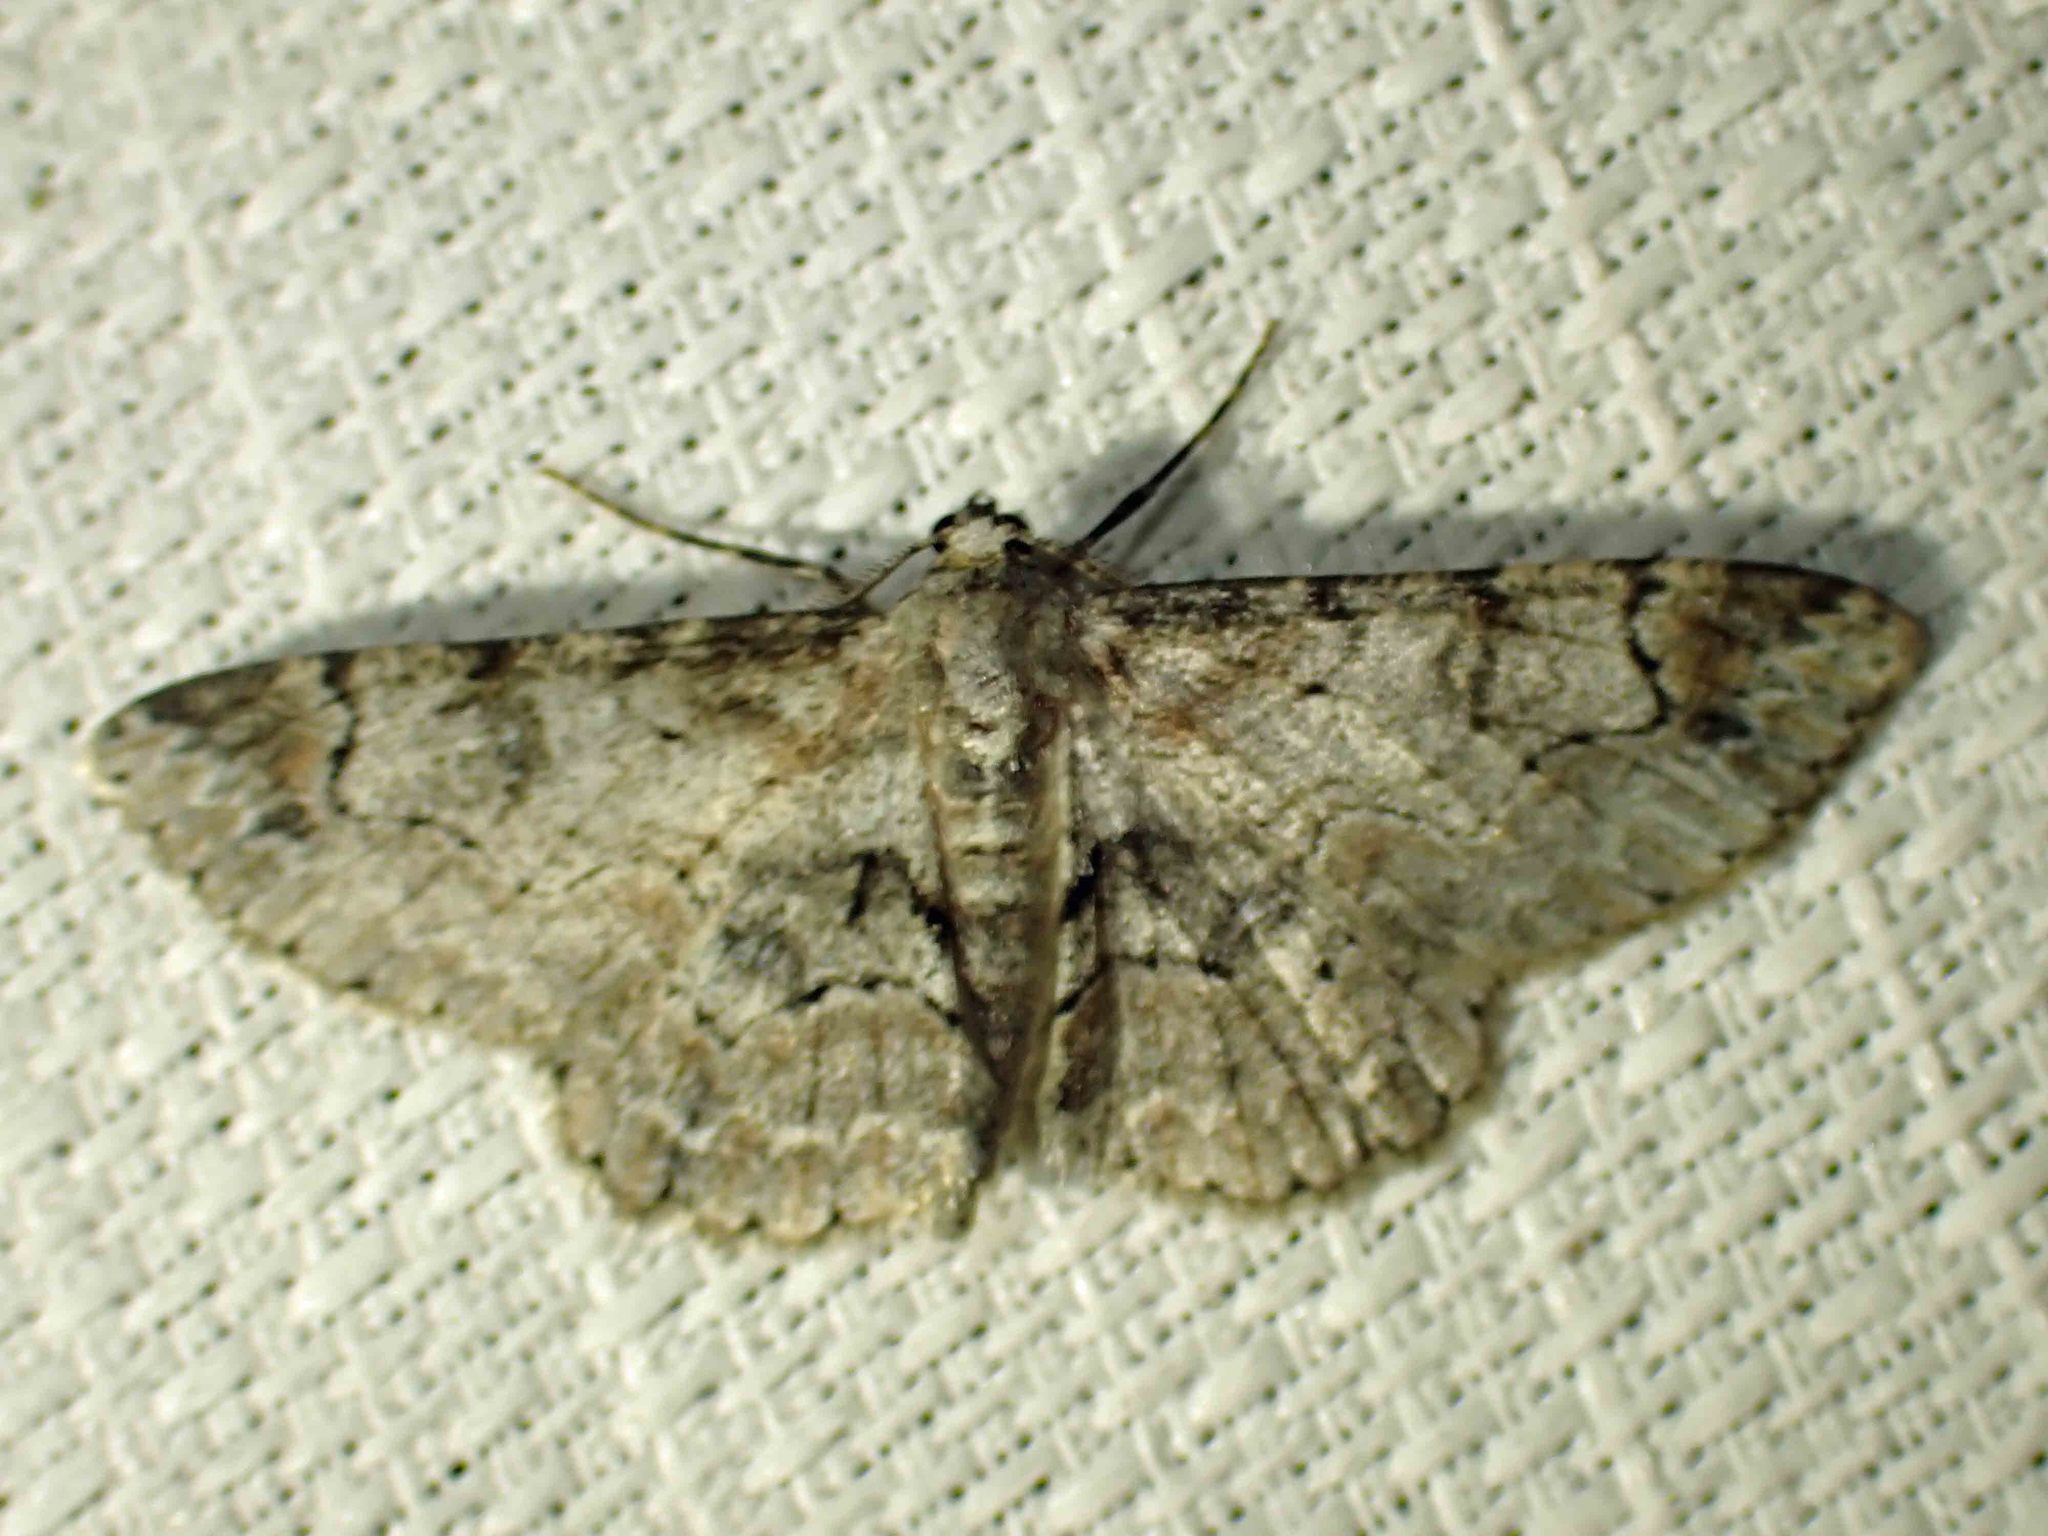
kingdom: Animalia
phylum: Arthropoda
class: Insecta
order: Lepidoptera
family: Geometridae
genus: Iridopsis
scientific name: Iridopsis larvaria
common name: Bent-line gray
